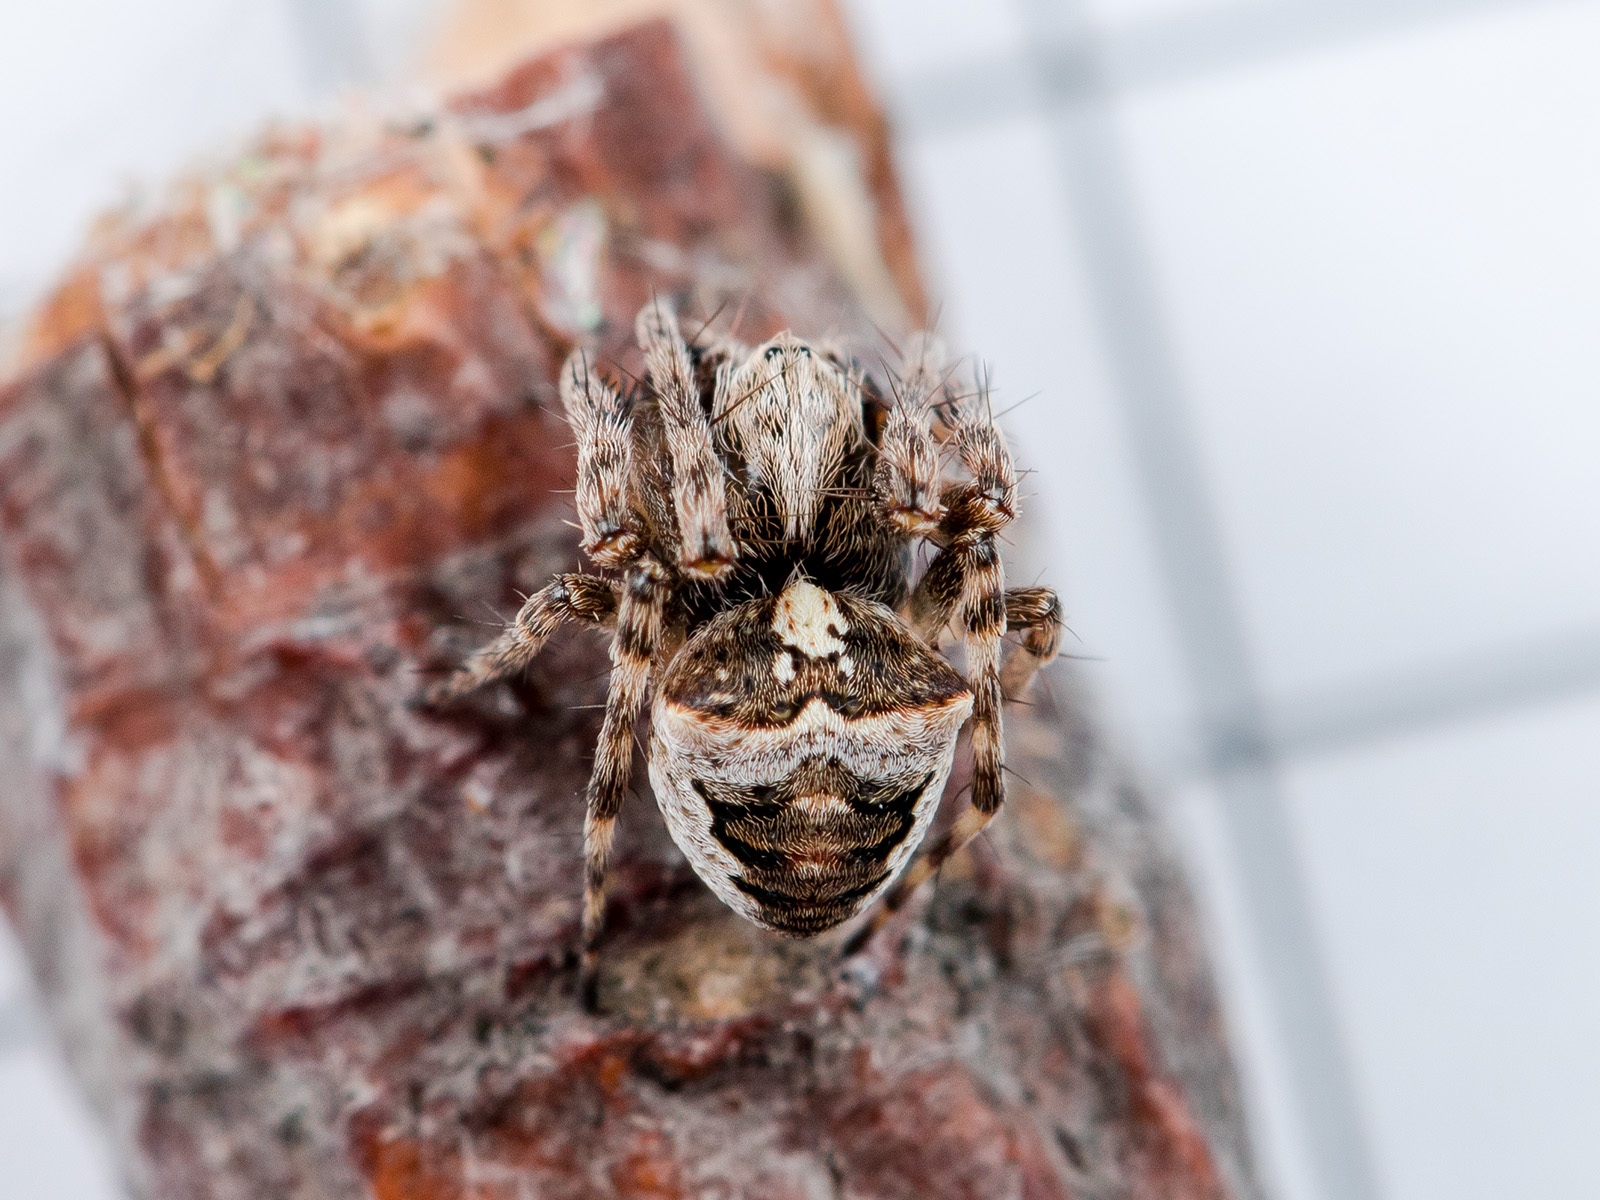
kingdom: Animalia
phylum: Arthropoda
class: Arachnida
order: Araneae
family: Araneidae
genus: Gibbaranea
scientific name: Gibbaranea ullrichi
